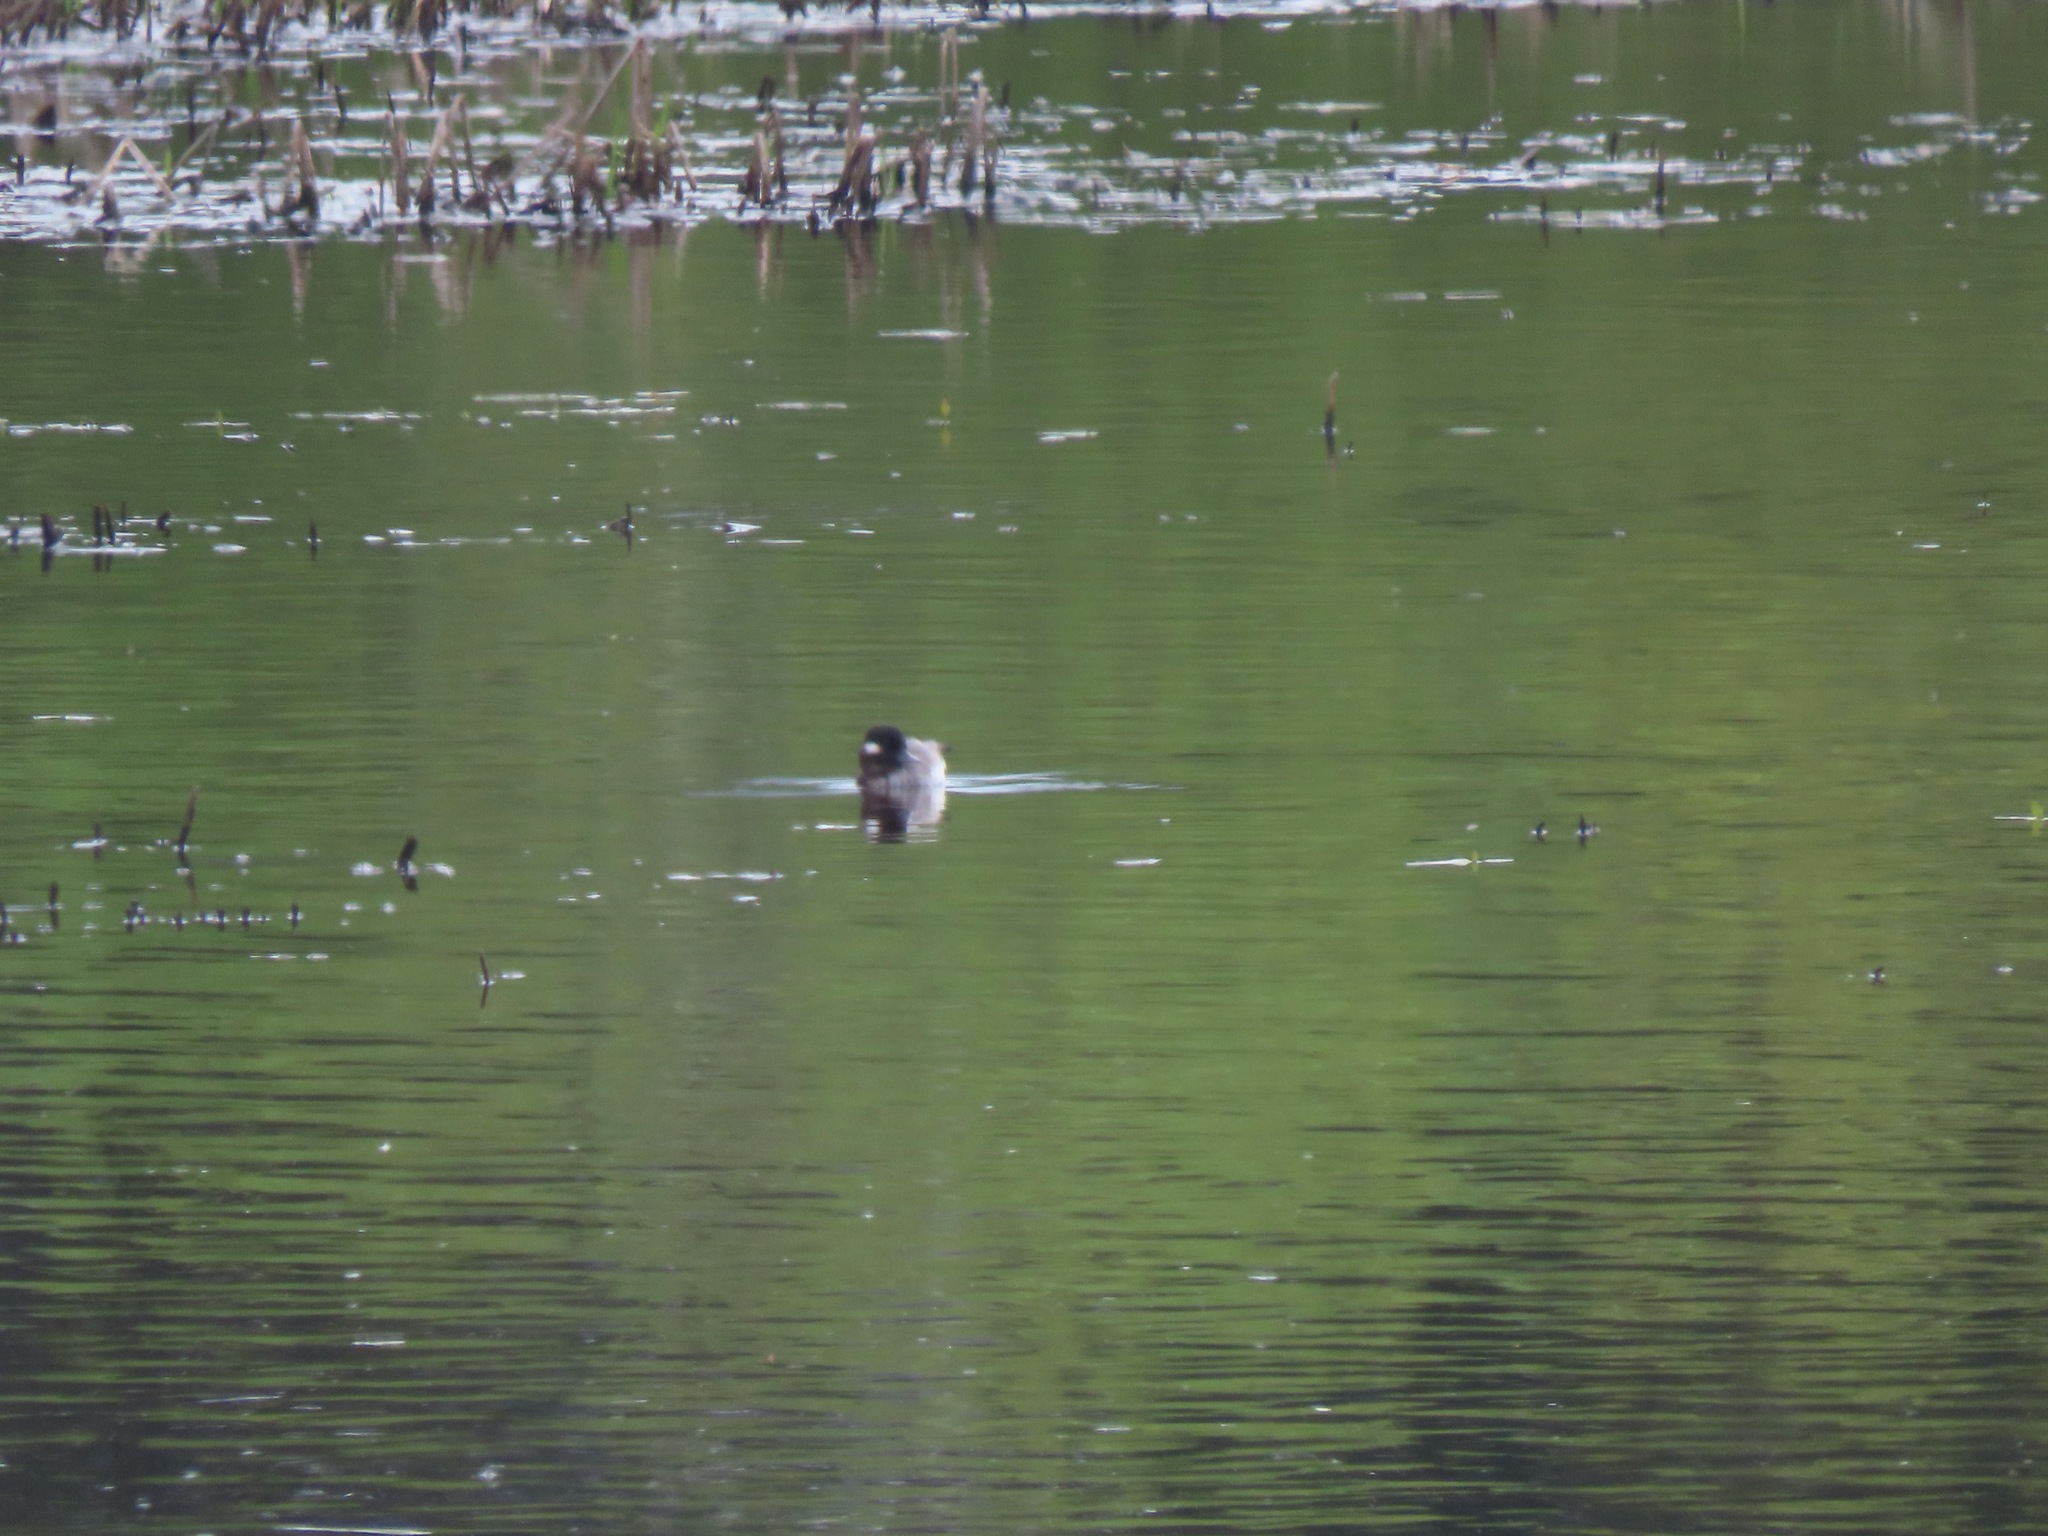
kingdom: Animalia
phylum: Chordata
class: Aves
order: Anseriformes
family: Anatidae
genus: Bucephala
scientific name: Bucephala albeola
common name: Bufflehead
